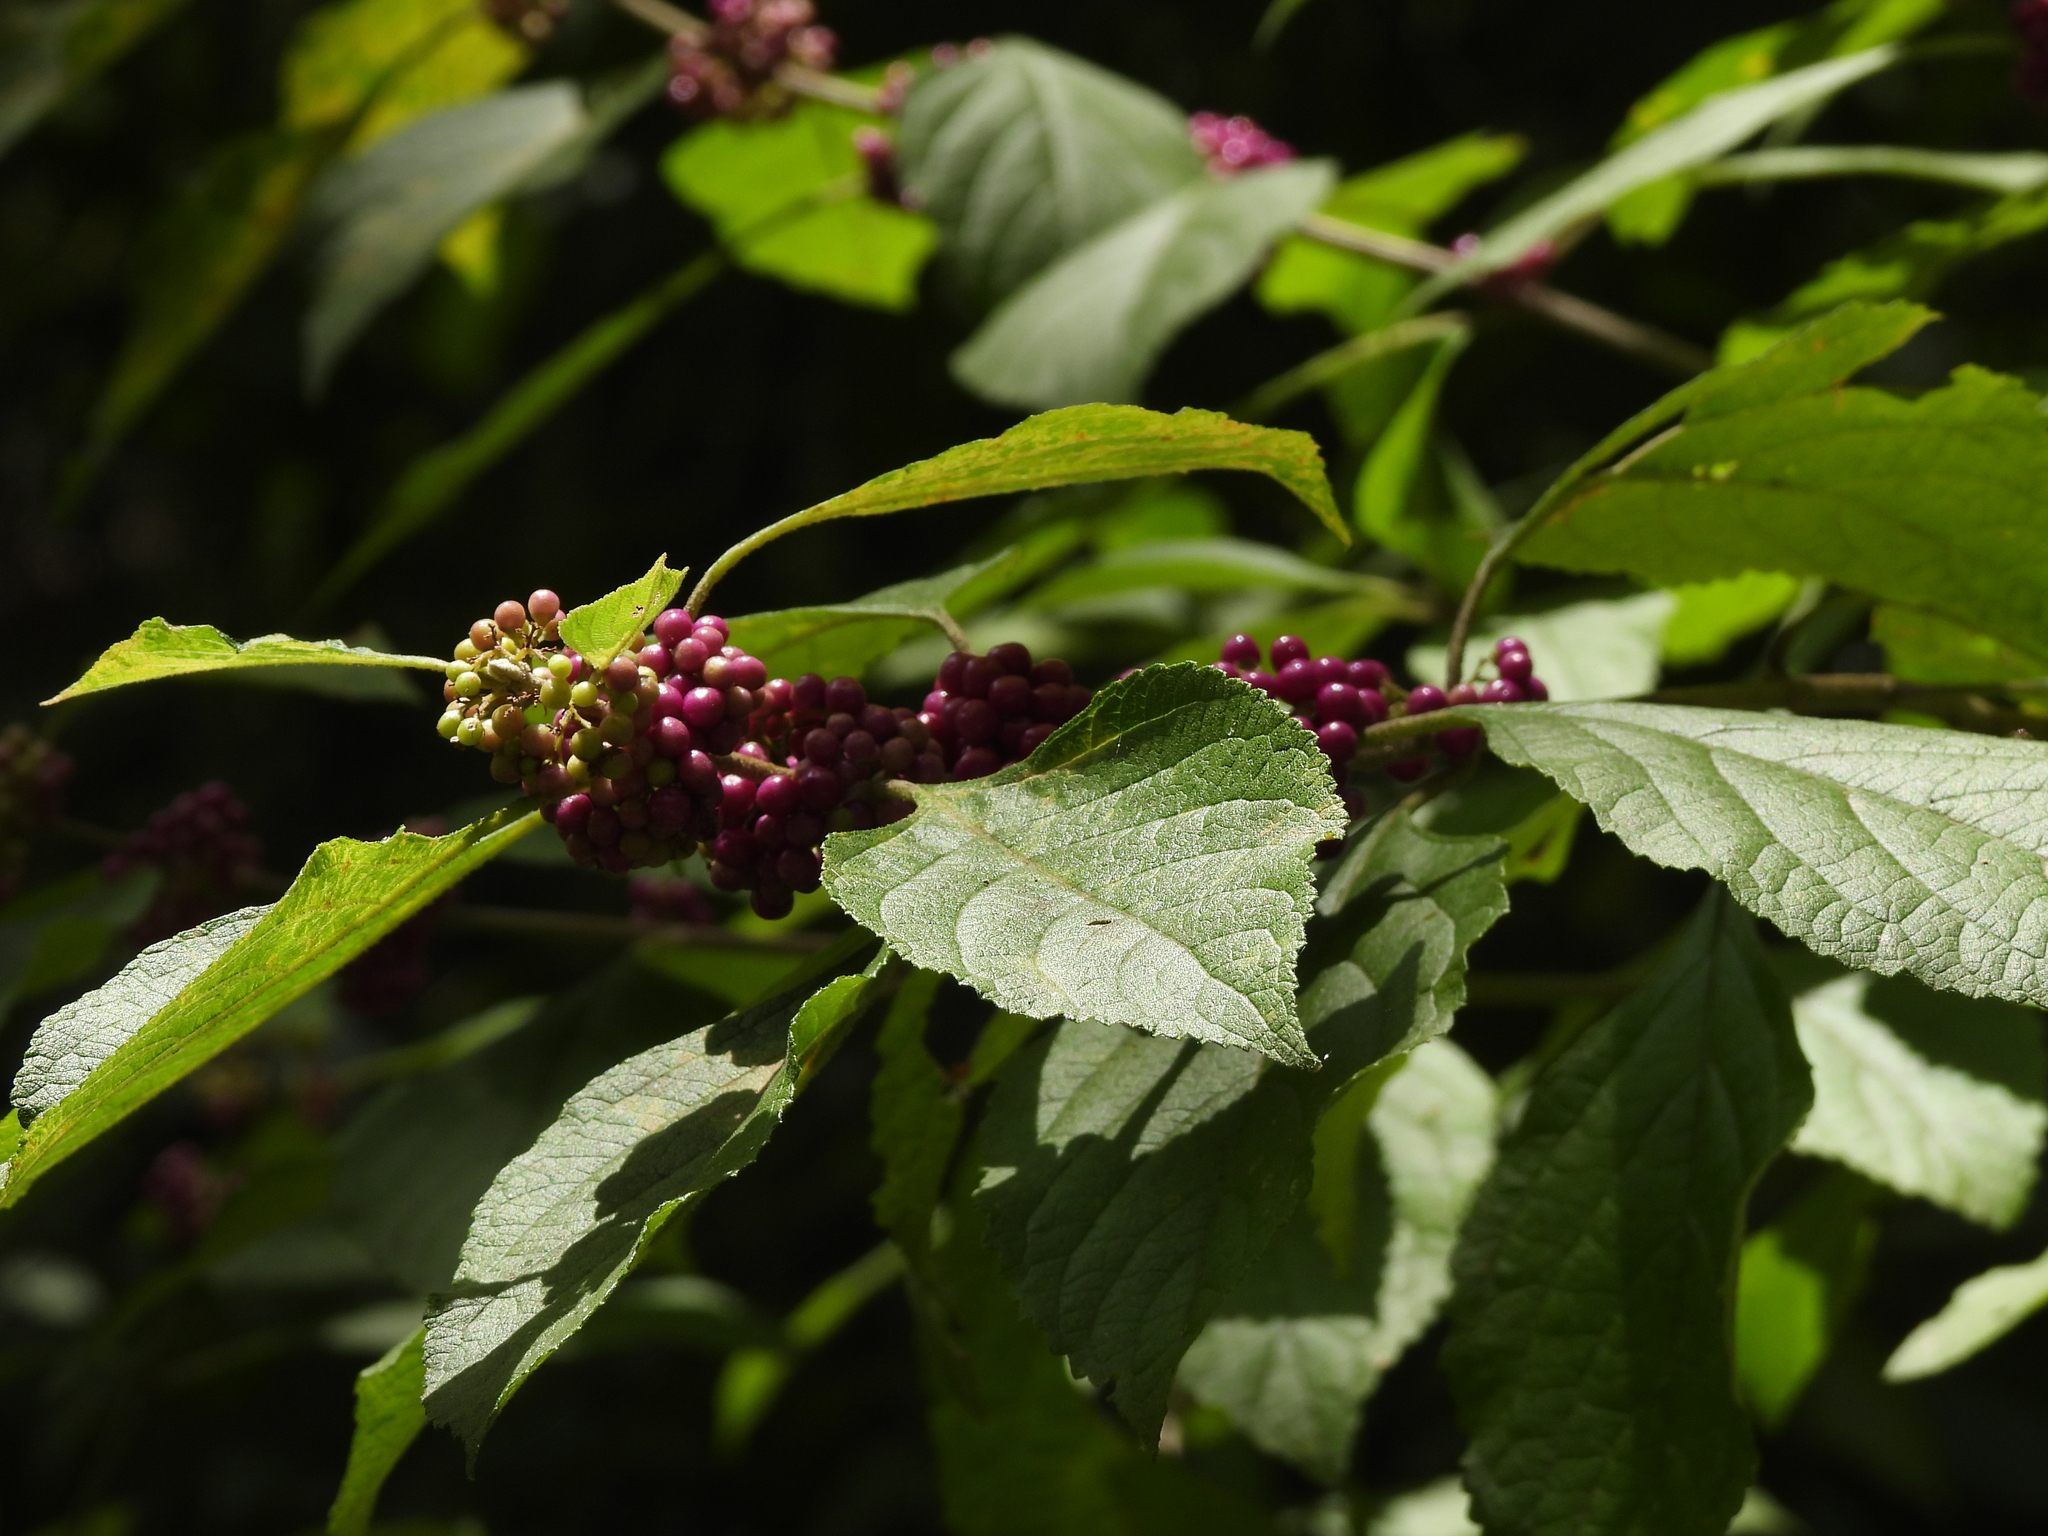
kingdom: Plantae
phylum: Tracheophyta
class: Magnoliopsida
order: Lamiales
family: Lamiaceae
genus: Callicarpa
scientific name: Callicarpa americana
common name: American beautyberry
